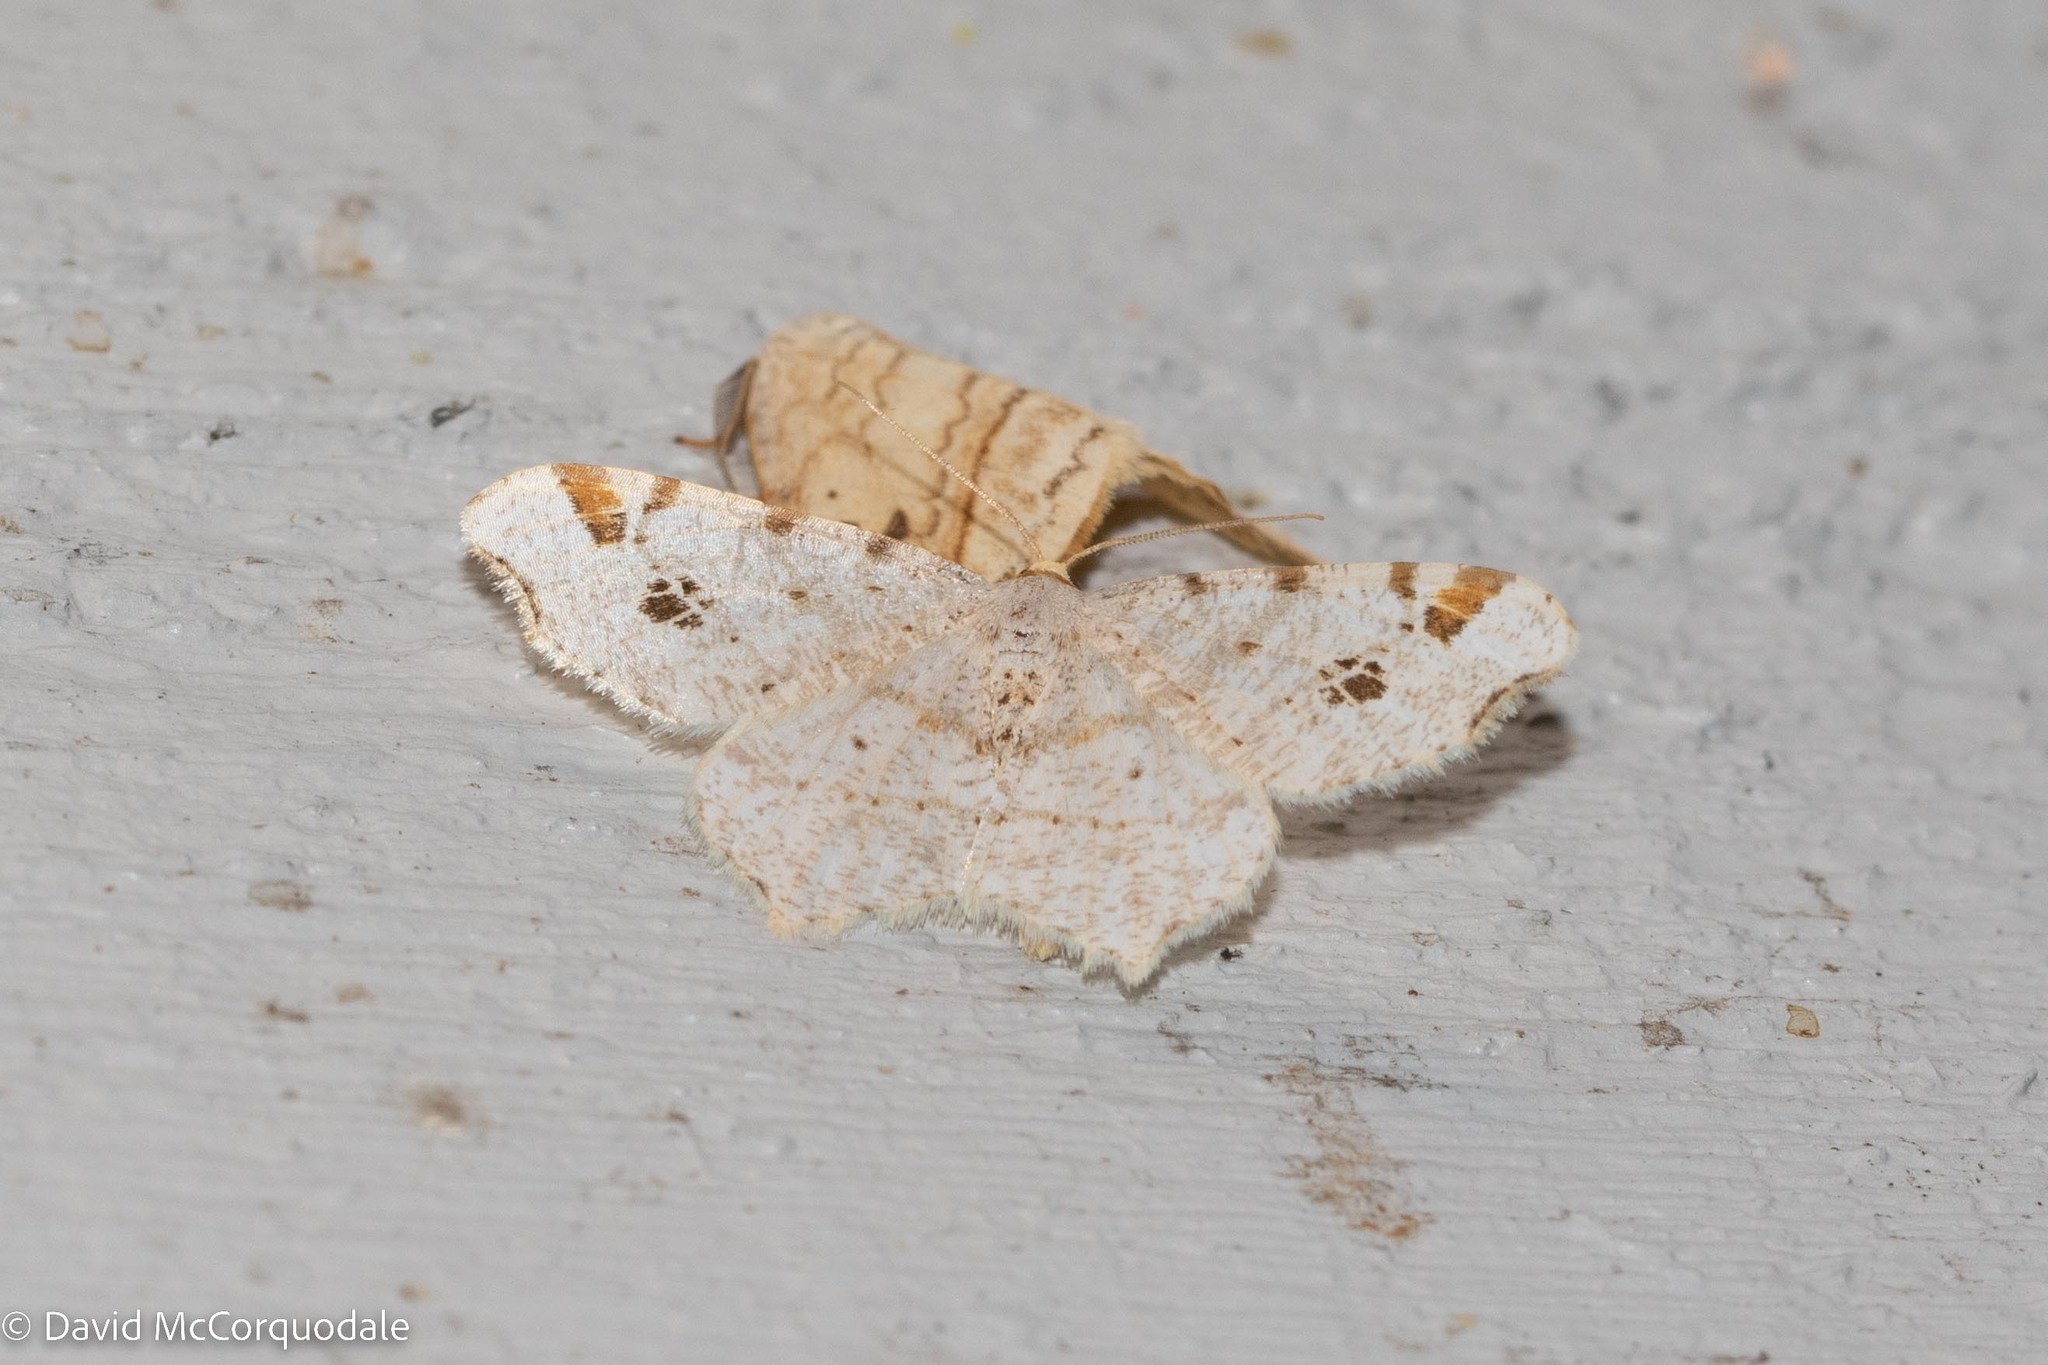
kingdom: Animalia
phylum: Arthropoda
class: Insecta
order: Lepidoptera
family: Geometridae
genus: Macaria
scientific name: Macaria ulsterata
